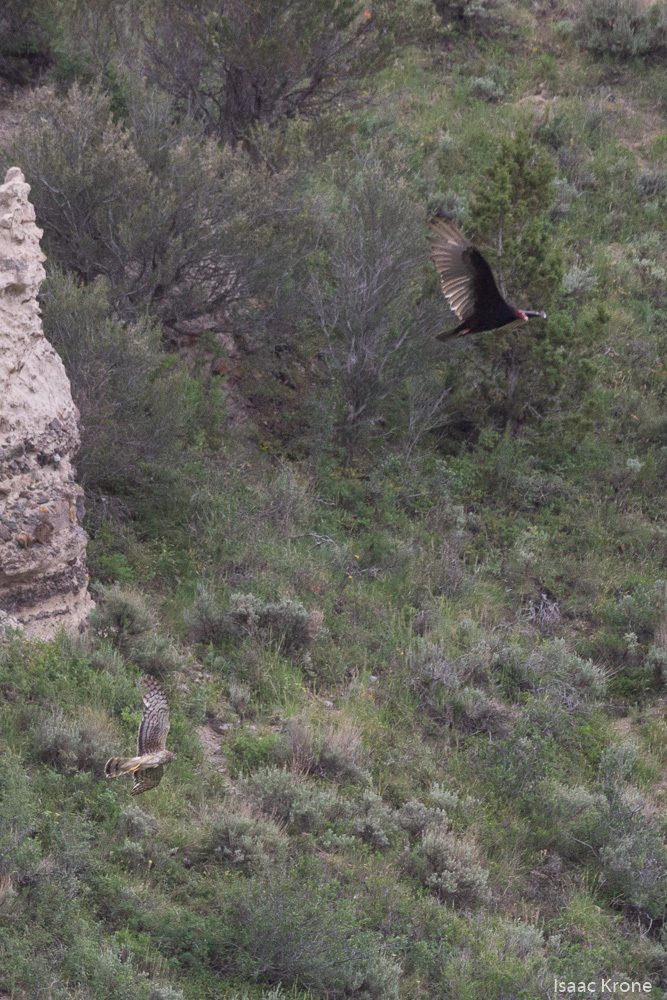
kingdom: Animalia
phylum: Chordata
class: Aves
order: Accipitriformes
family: Cathartidae
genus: Cathartes
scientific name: Cathartes aura
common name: Turkey vulture
